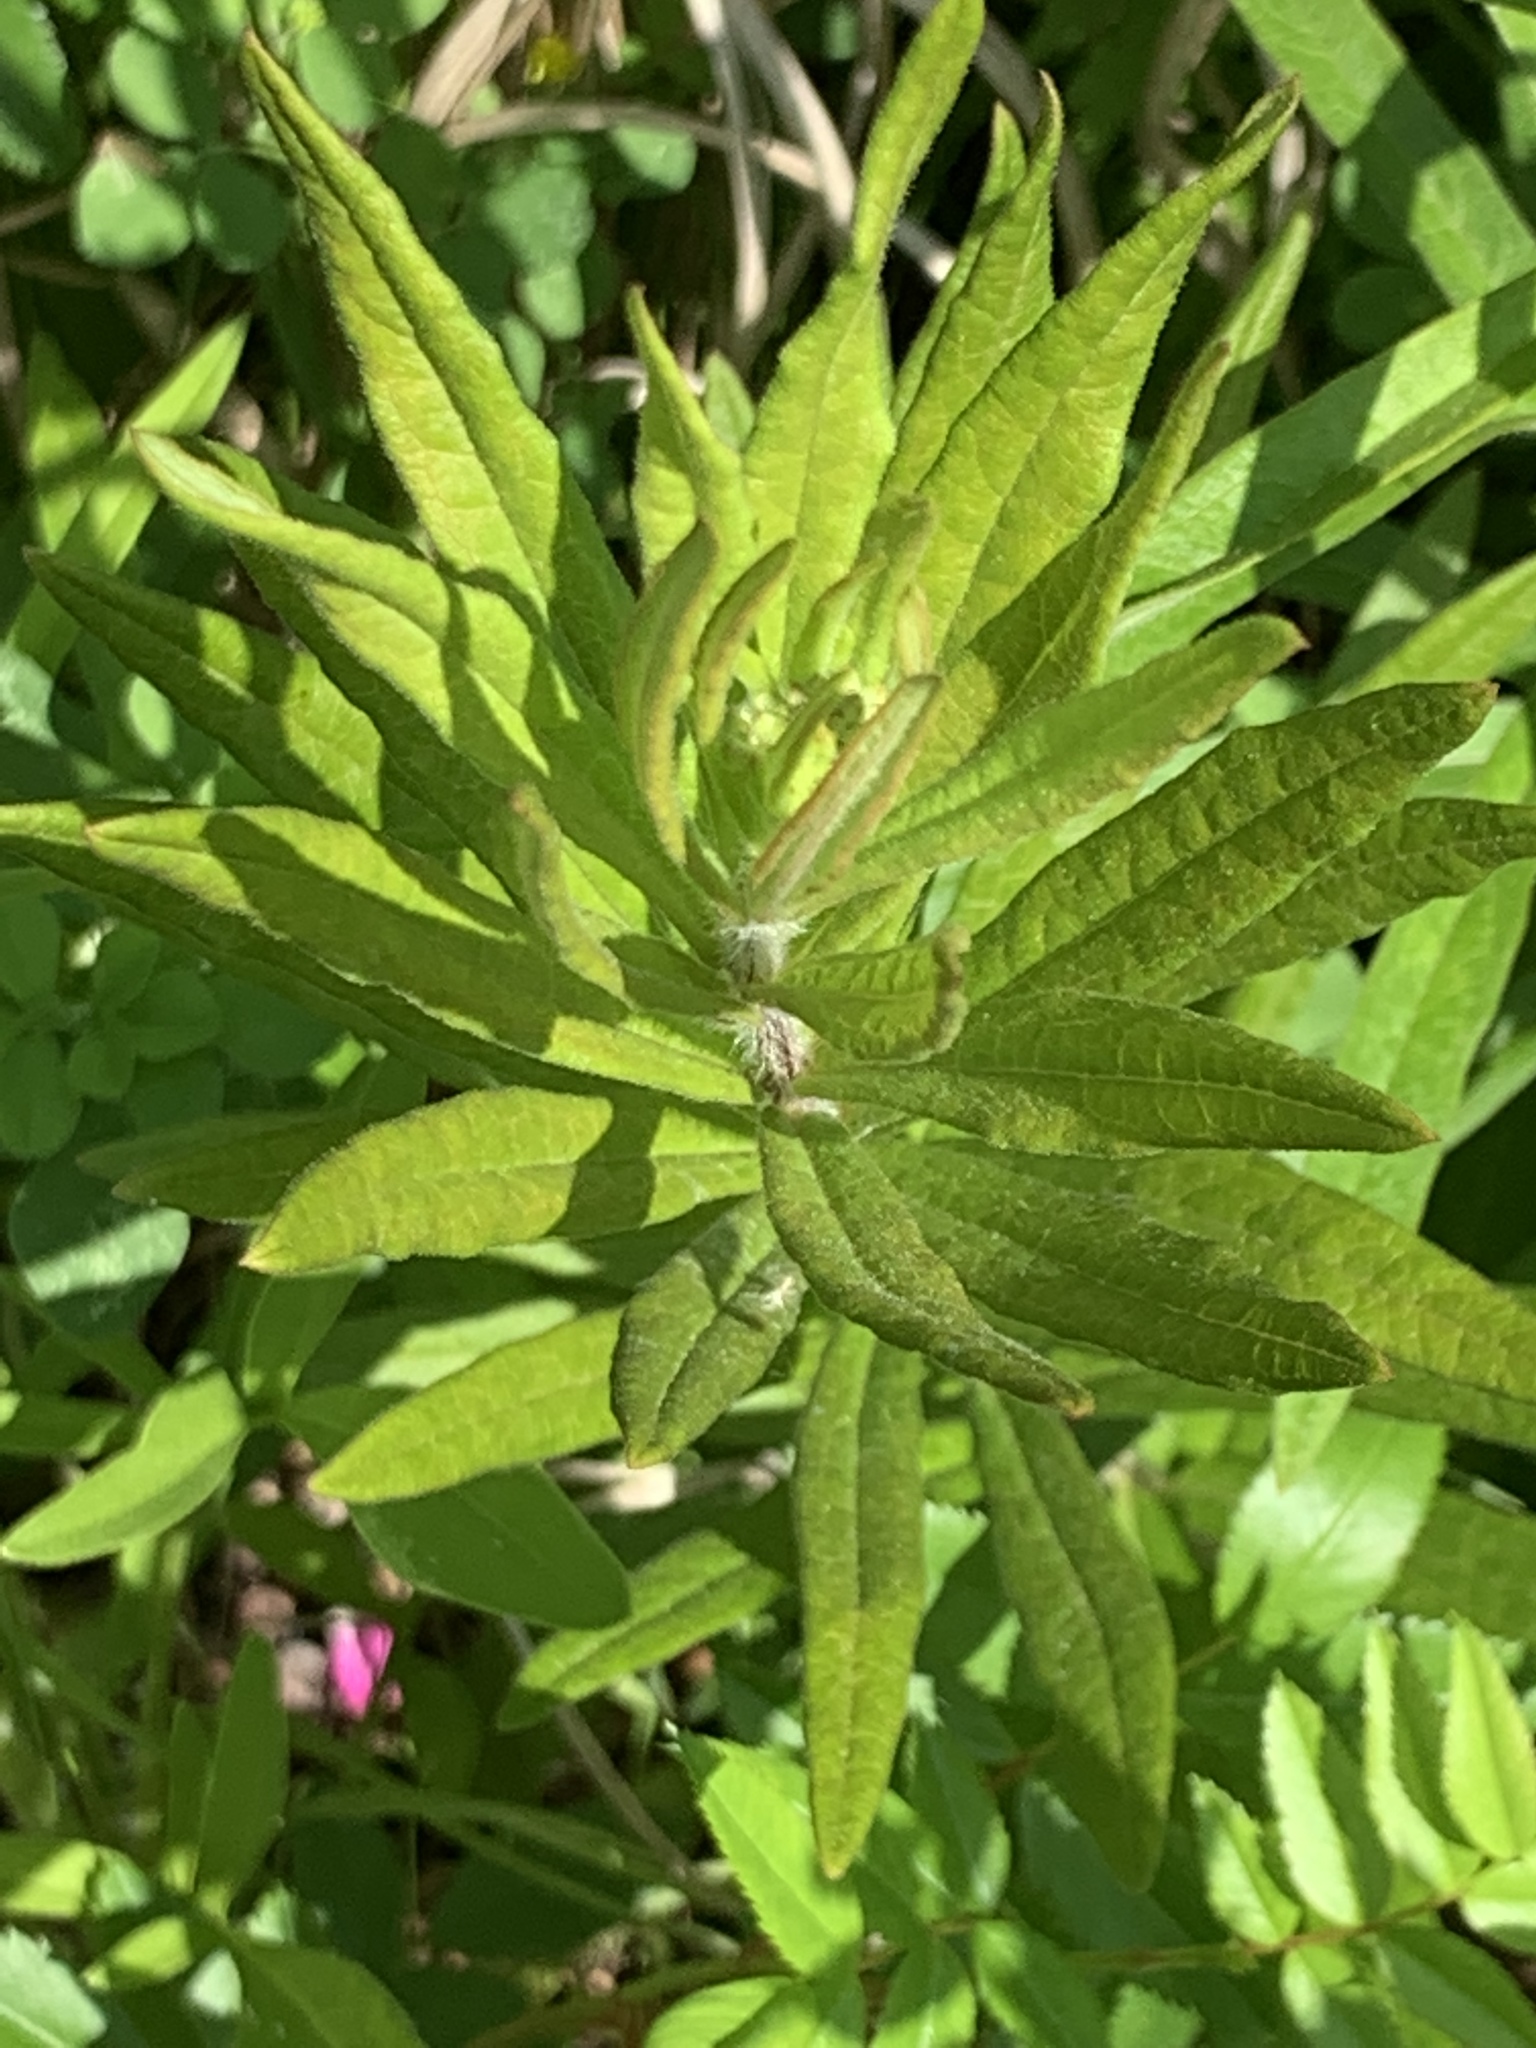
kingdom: Plantae
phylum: Tracheophyta
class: Magnoliopsida
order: Gentianales
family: Apocynaceae
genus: Asclepias
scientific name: Asclepias tuberosa
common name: Butterfly milkweed
